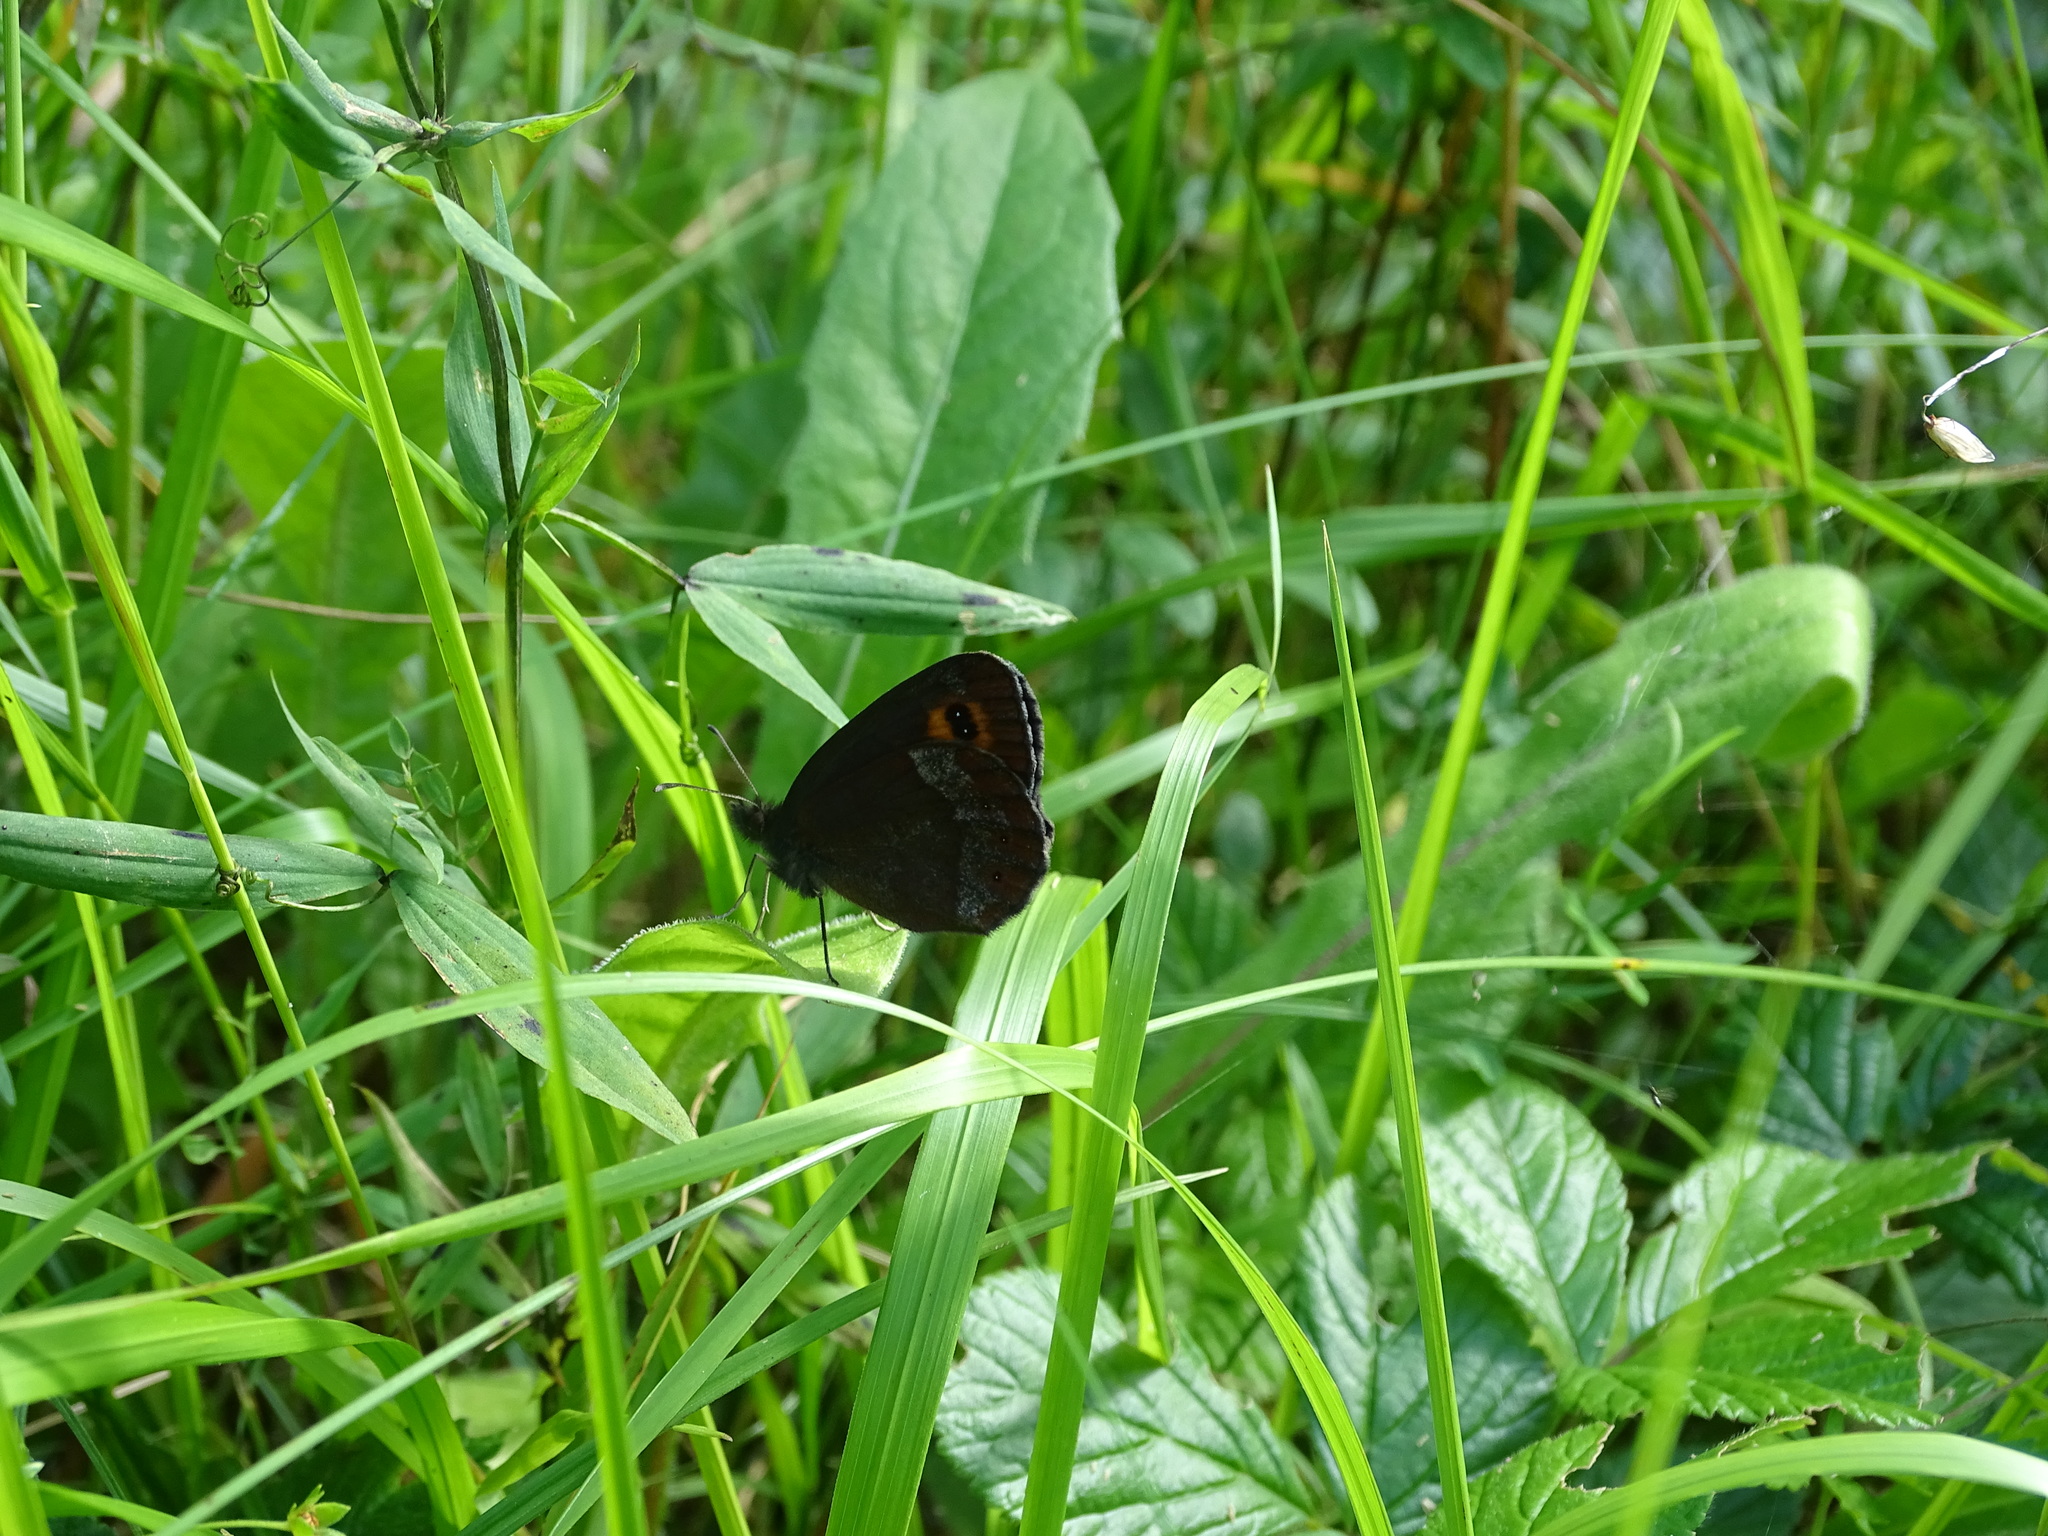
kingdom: Animalia
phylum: Arthropoda
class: Insecta
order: Lepidoptera
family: Nymphalidae
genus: Erebia
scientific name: Erebia aethiops
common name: Scotch argus
